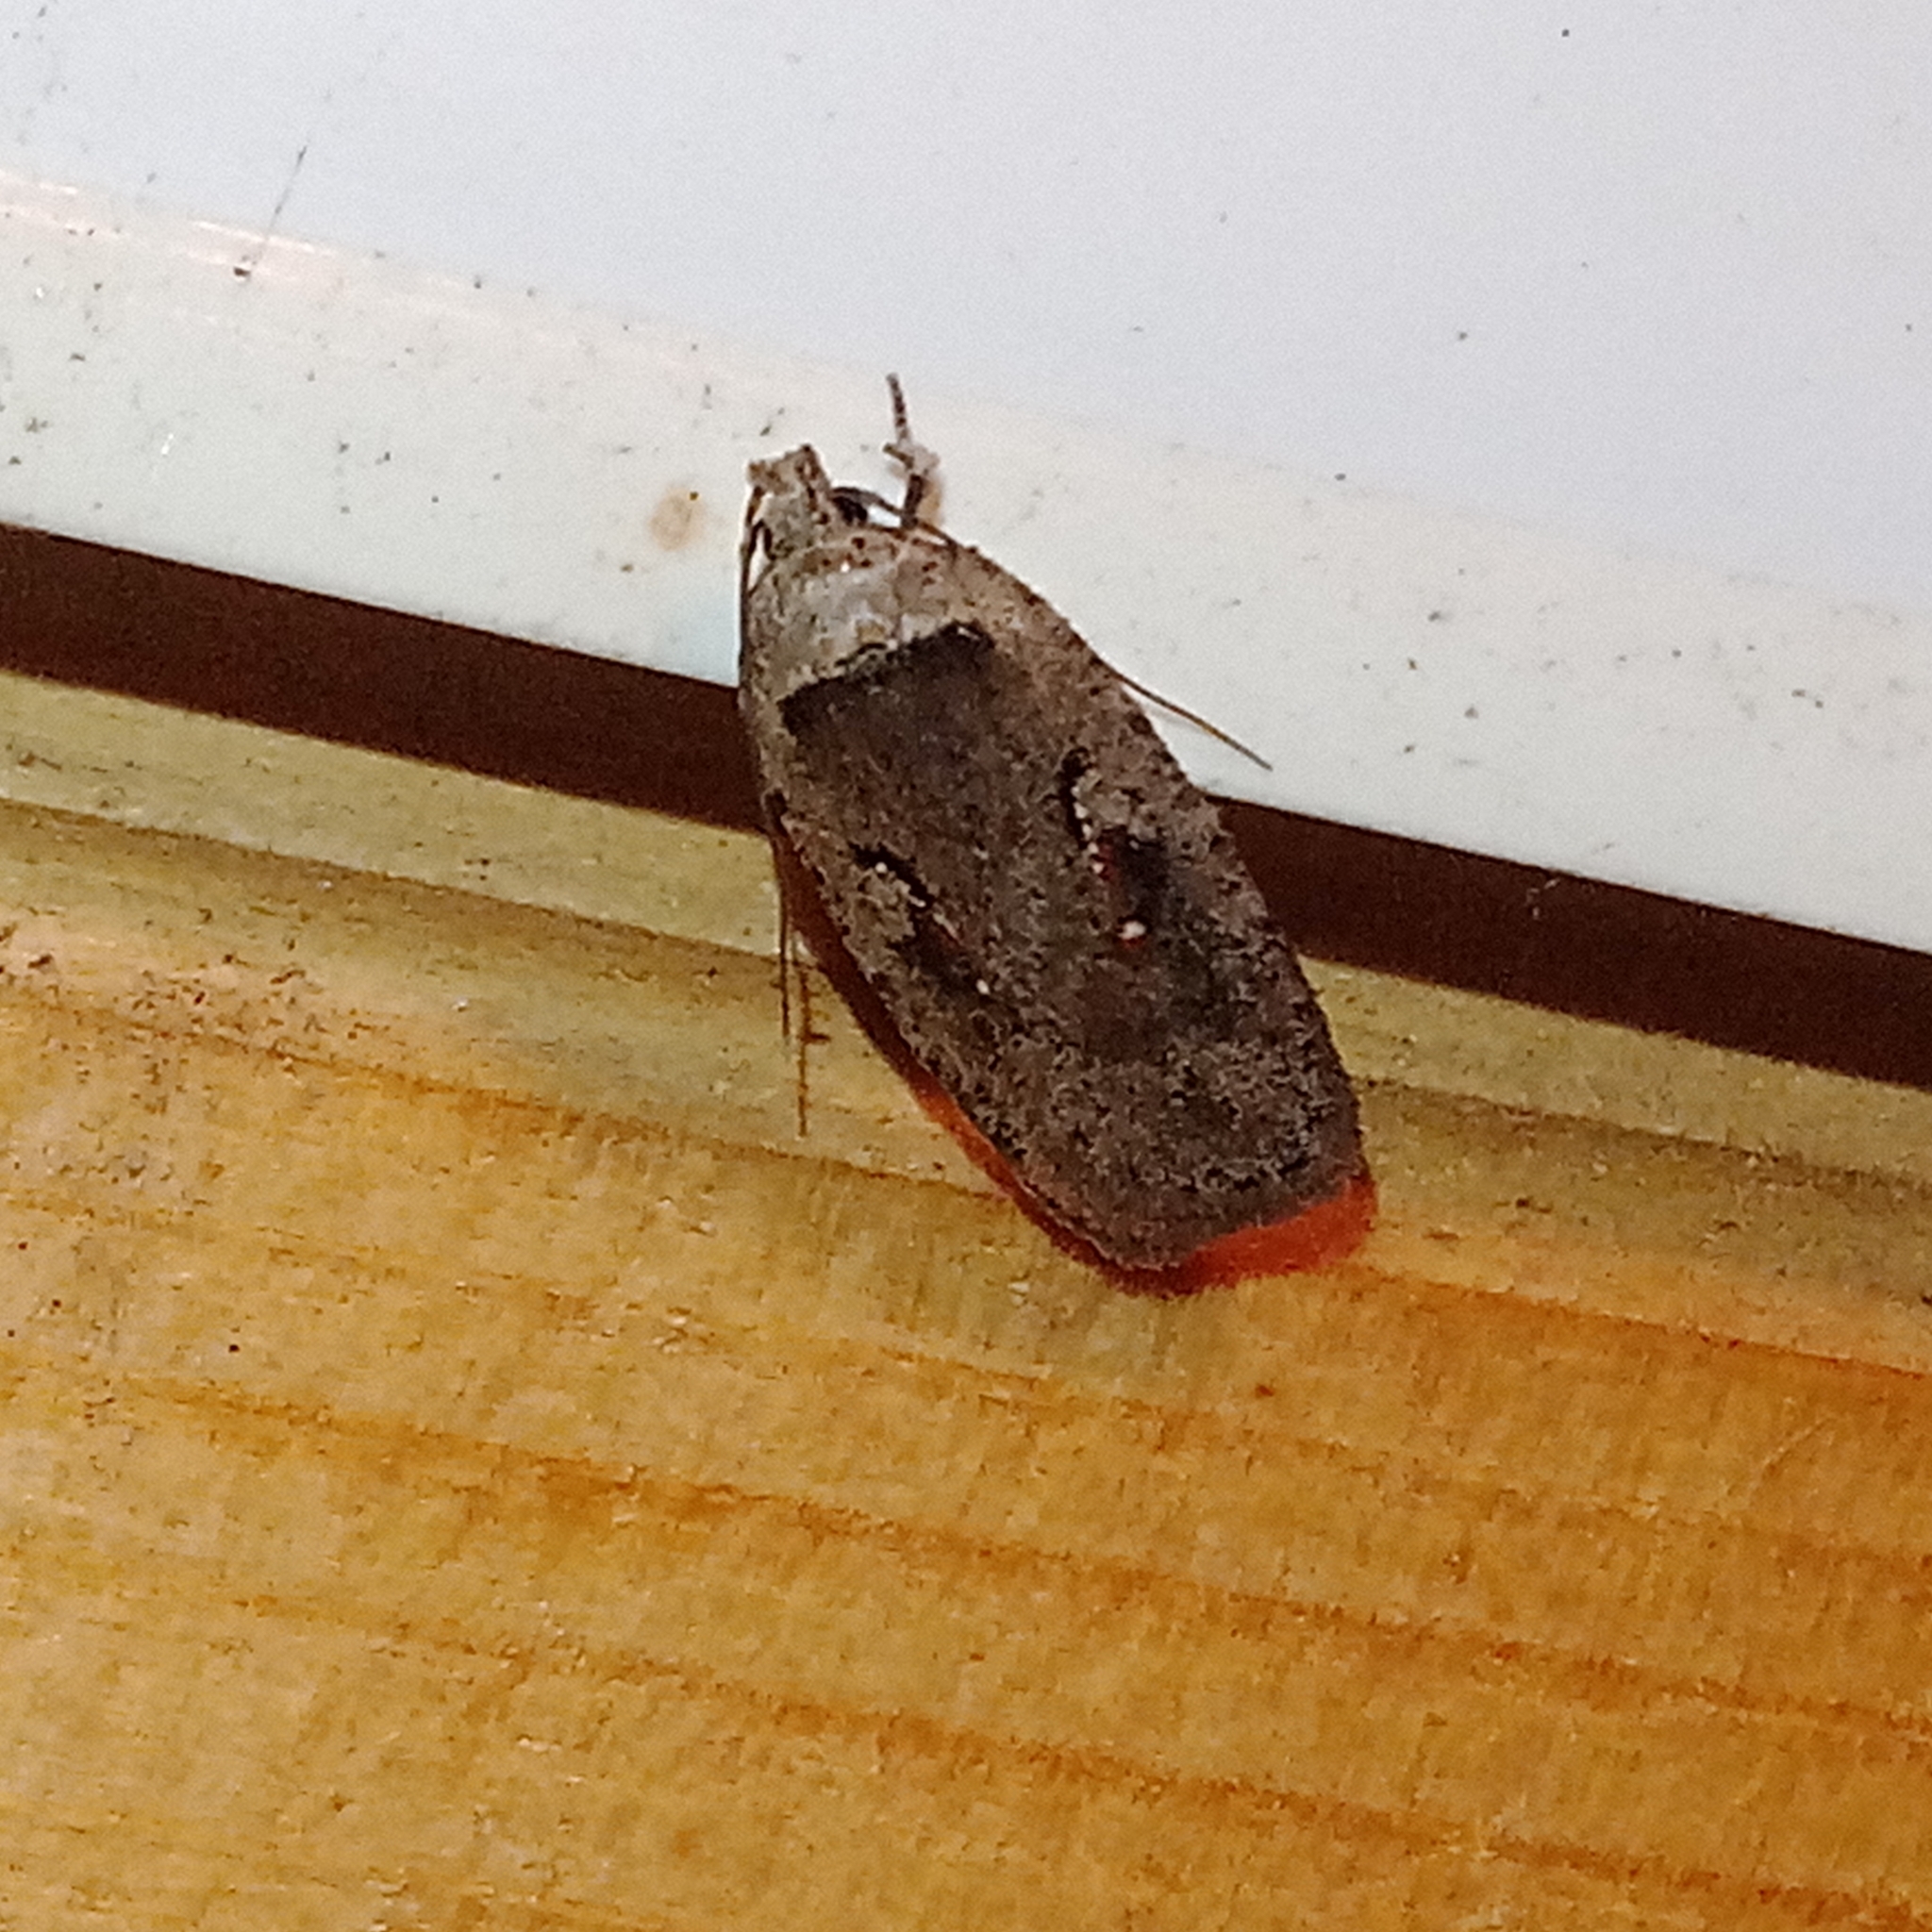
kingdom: Animalia
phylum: Arthropoda
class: Insecta
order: Lepidoptera
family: Depressariidae
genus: Agonopterix
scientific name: Agonopterix ocellana
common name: Red-letter flat-body
